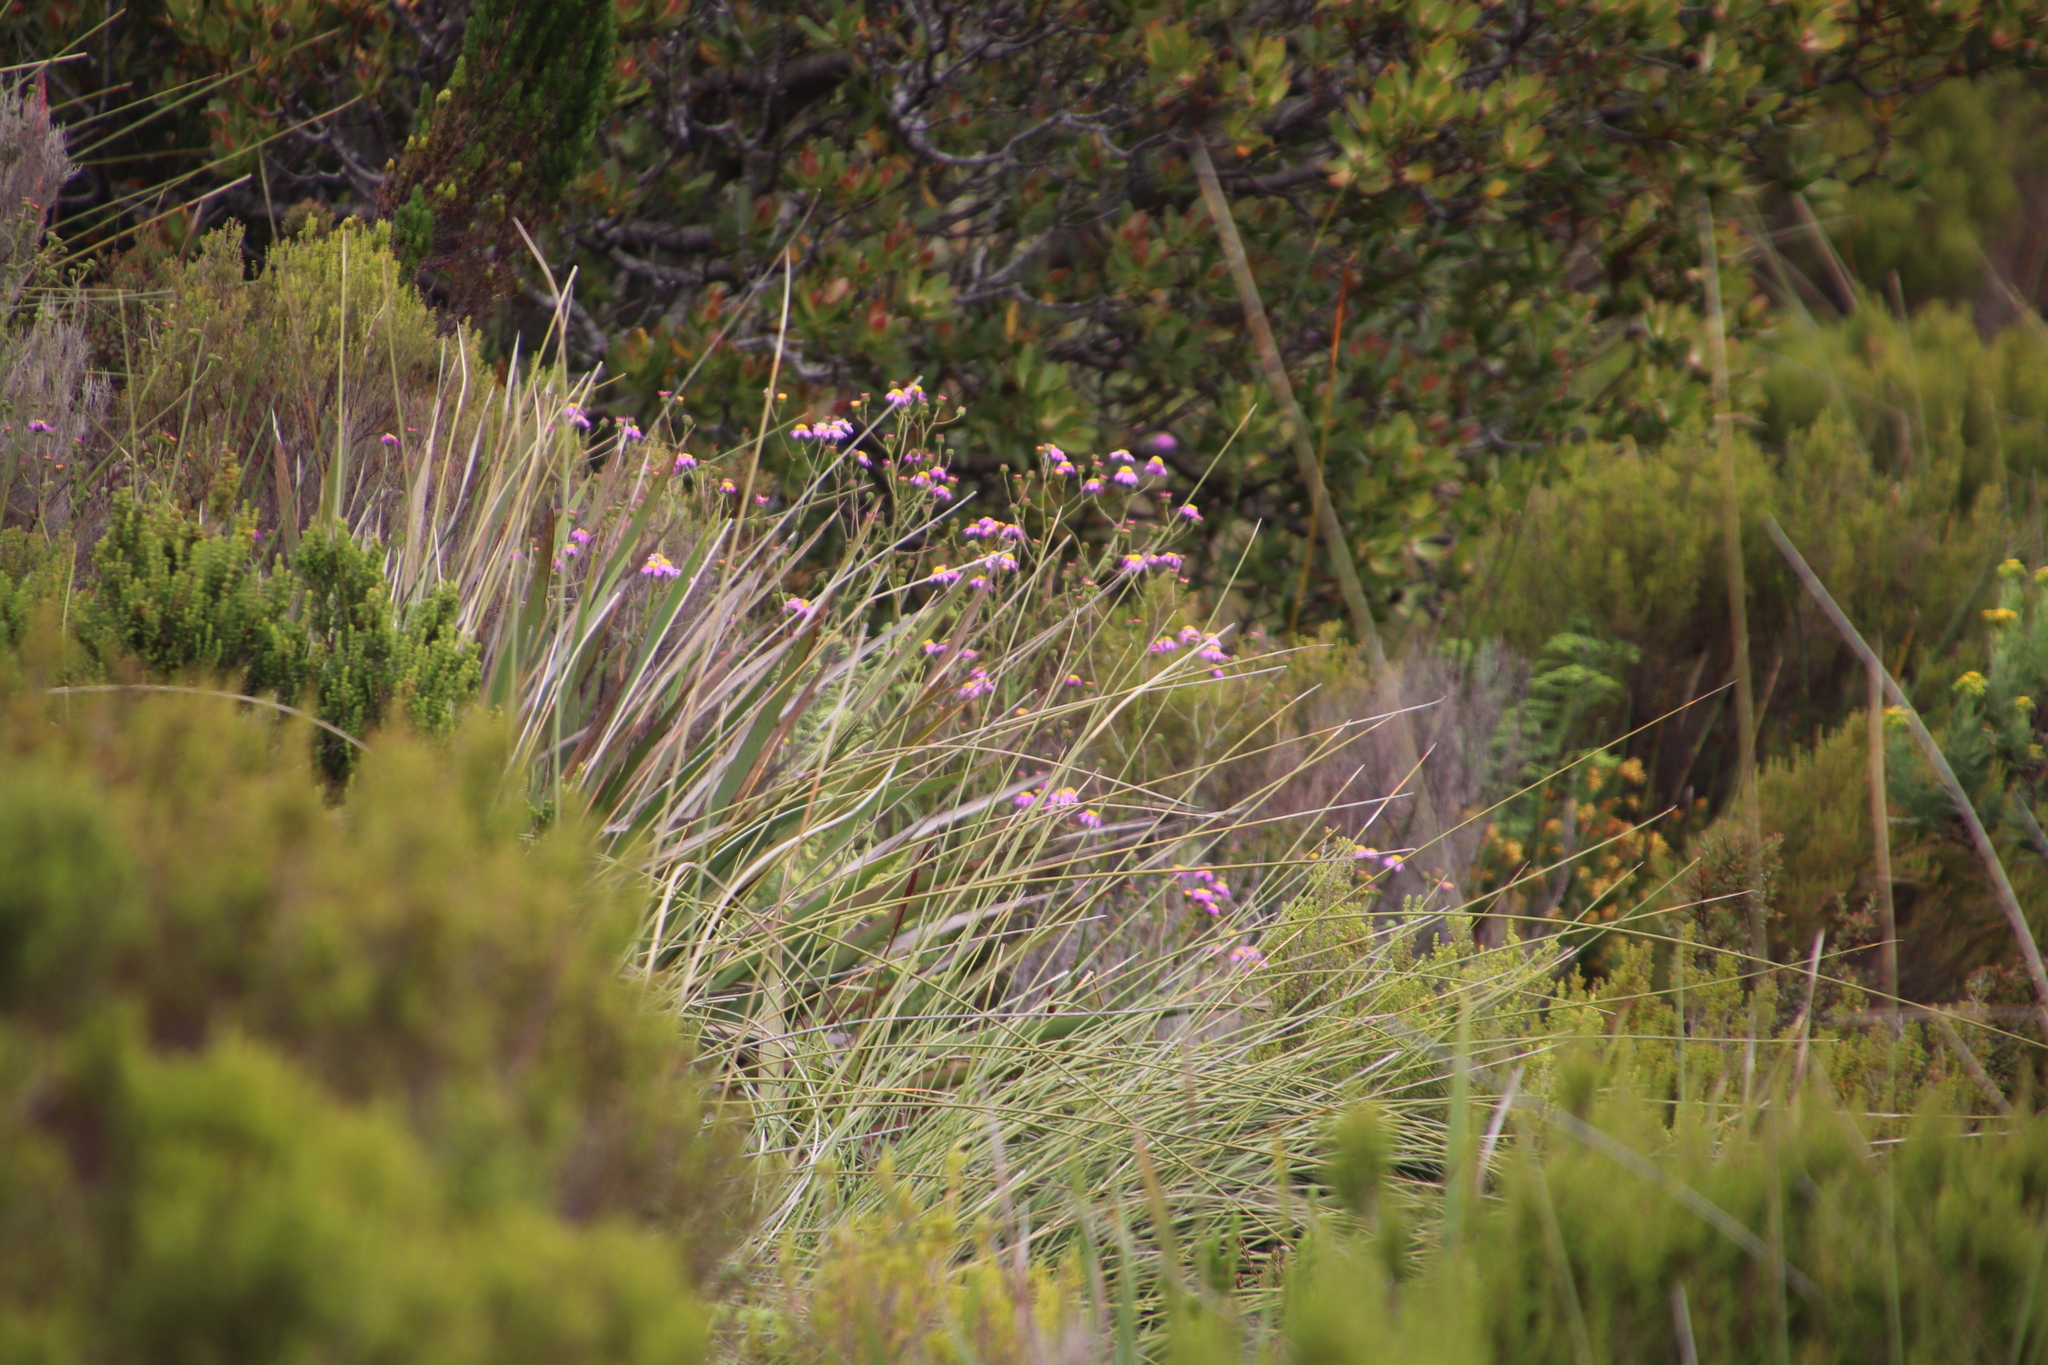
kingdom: Plantae
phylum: Tracheophyta
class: Magnoliopsida
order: Asterales
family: Asteraceae
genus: Senecio
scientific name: Senecio umbellatus
